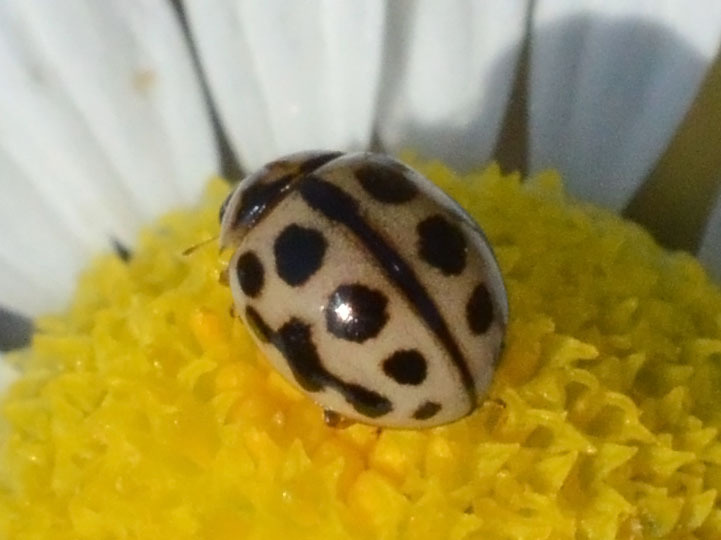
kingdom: Animalia
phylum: Arthropoda
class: Insecta
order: Coleoptera
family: Coccinellidae
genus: Tytthaspis
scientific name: Tytthaspis sedecimpunctata
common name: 16-spot ladybird
